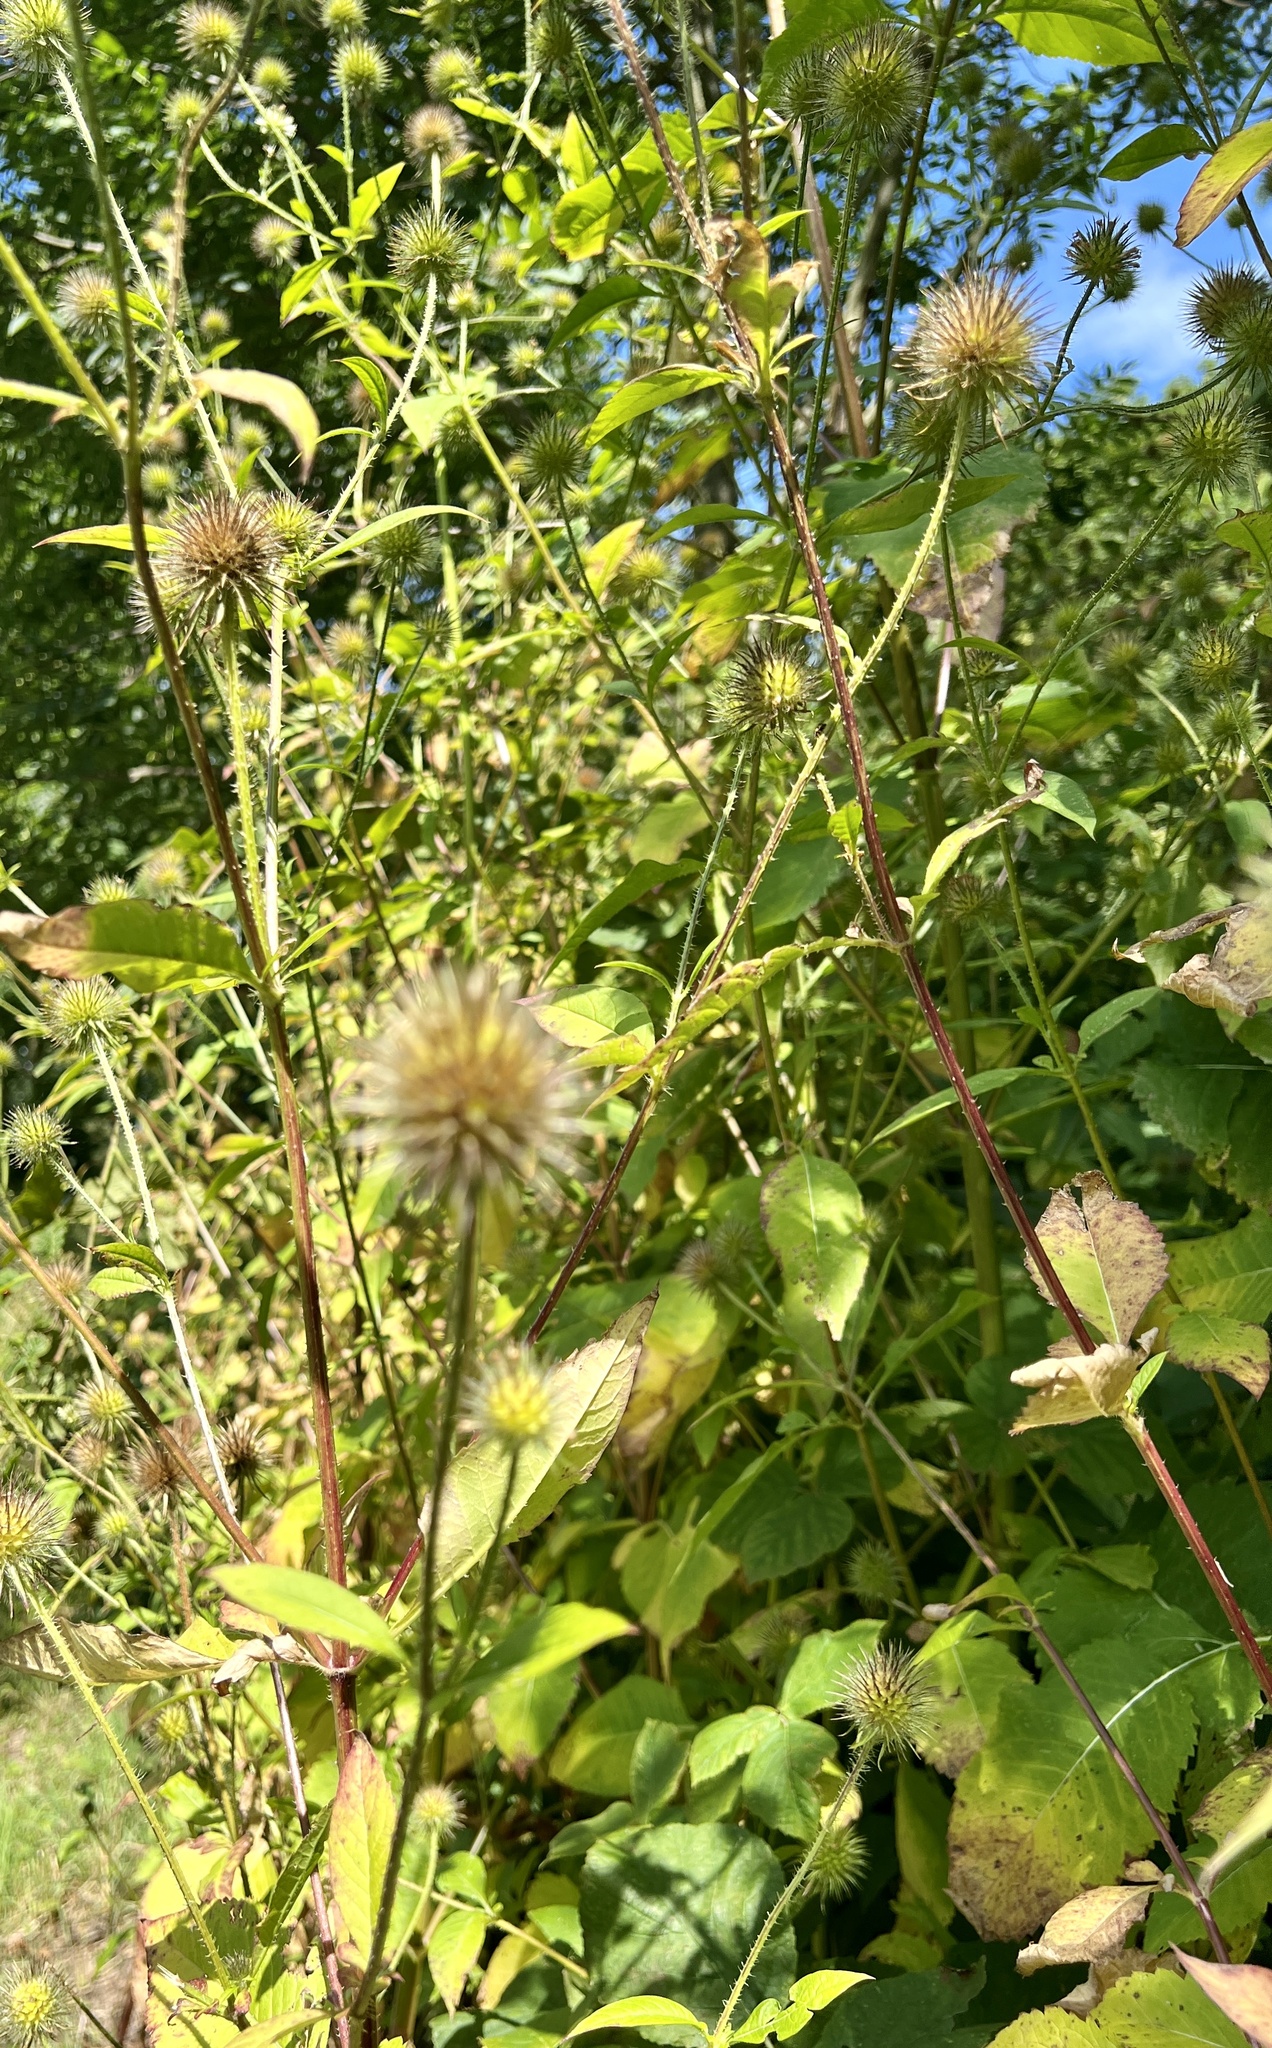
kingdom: Plantae
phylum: Tracheophyta
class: Magnoliopsida
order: Dipsacales
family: Caprifoliaceae
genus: Dipsacus
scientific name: Dipsacus strigosus
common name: Yellow-flowered teasel
